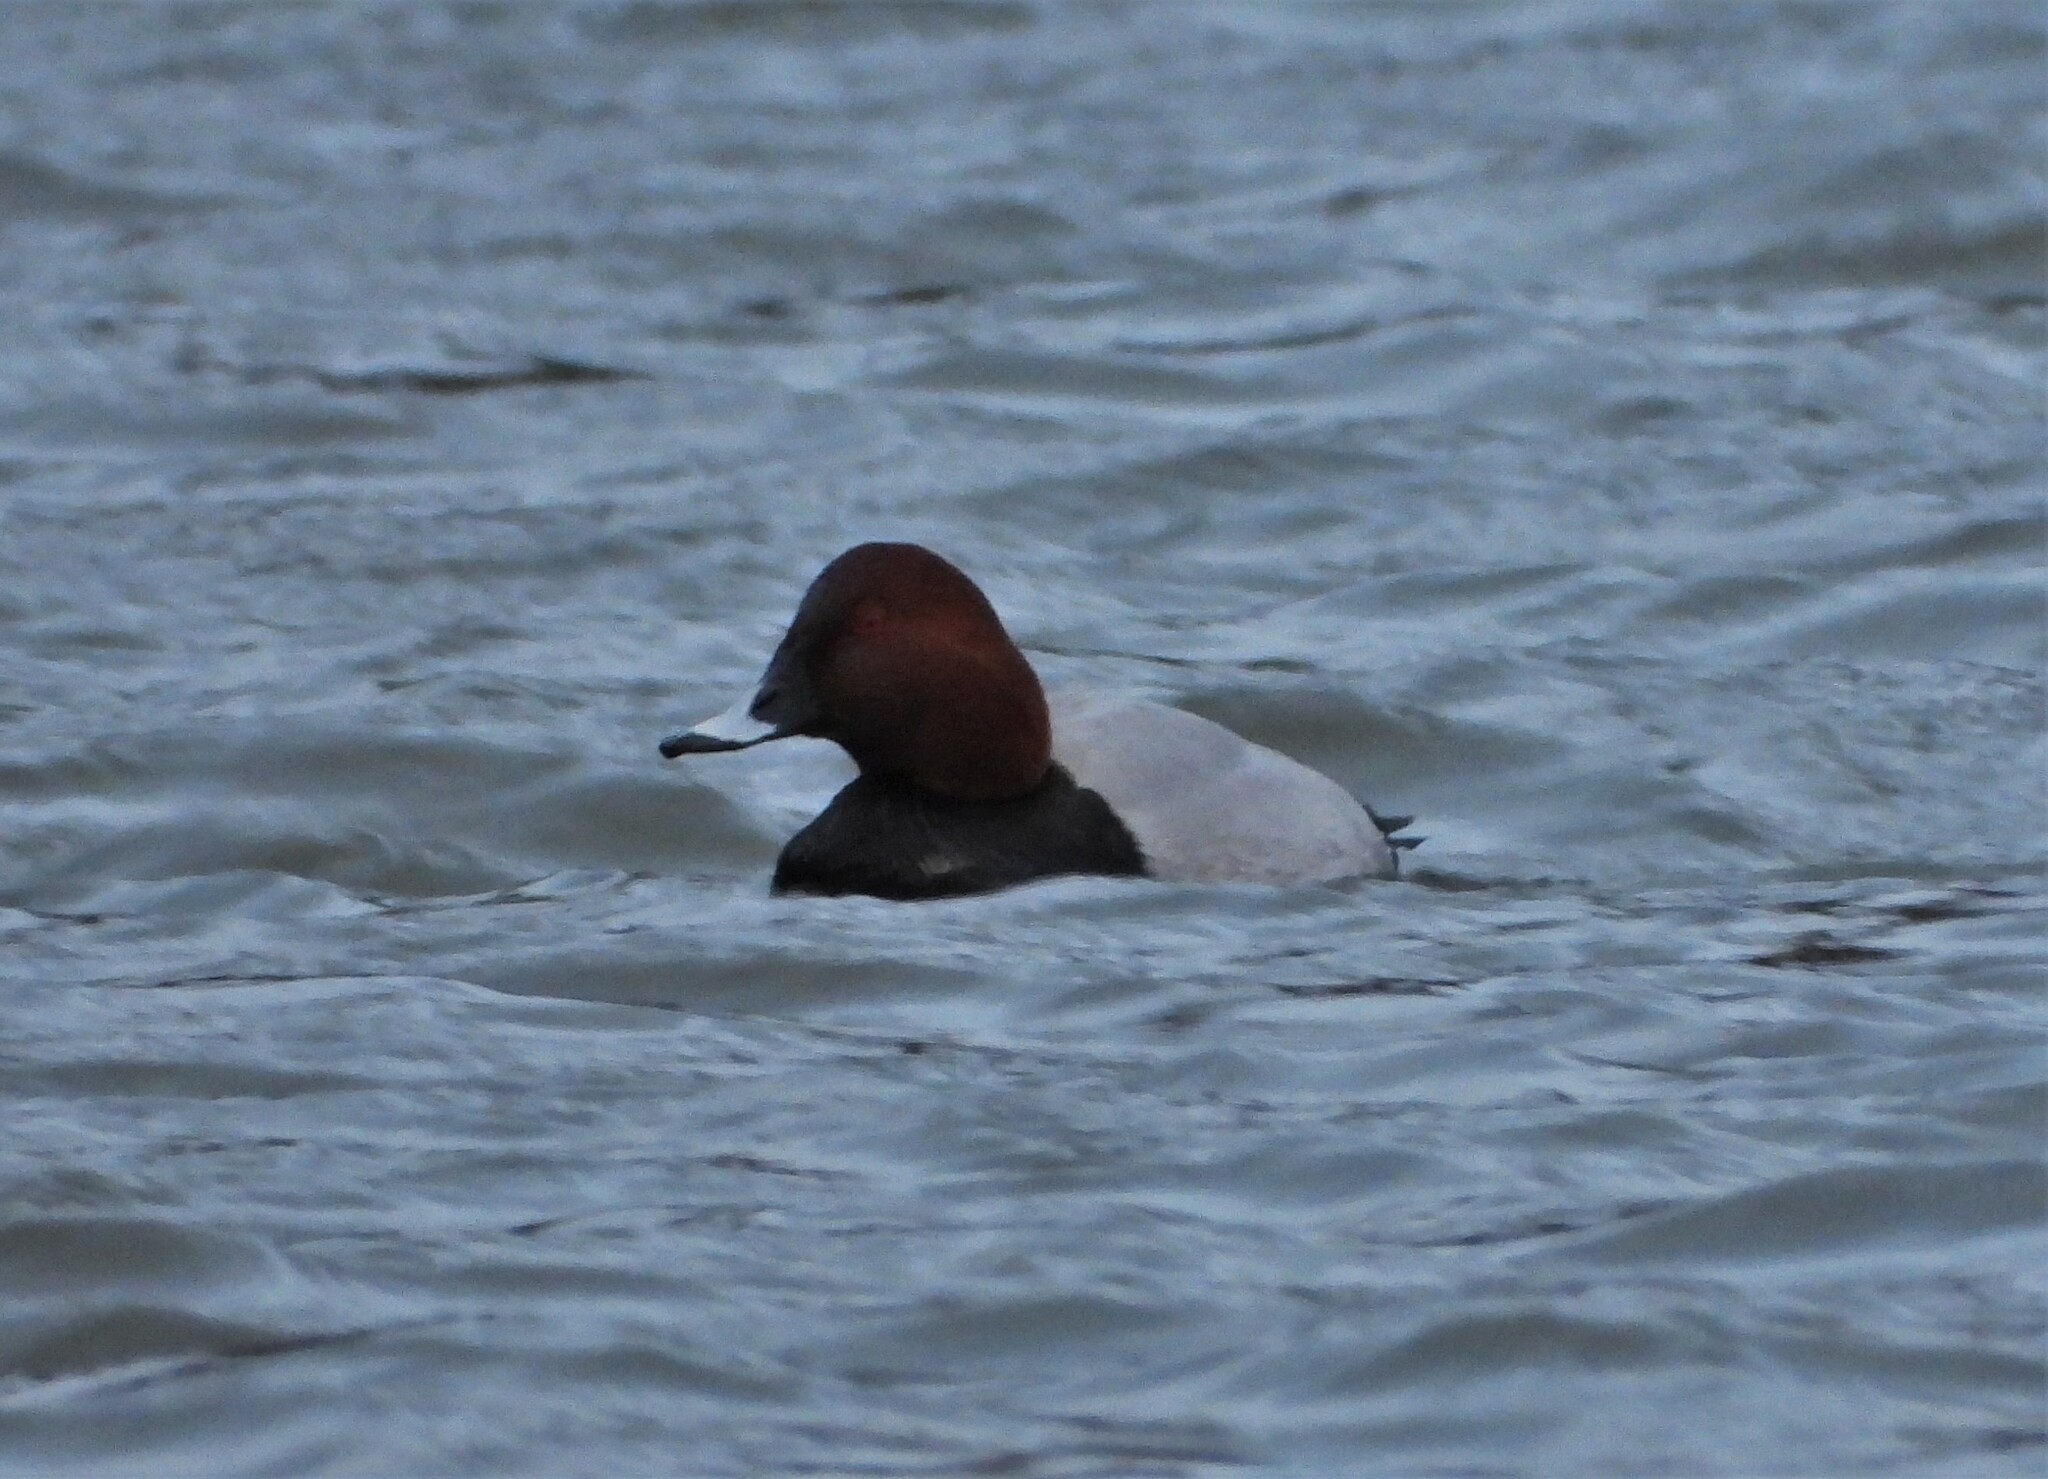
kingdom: Animalia
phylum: Chordata
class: Aves
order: Anseriformes
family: Anatidae
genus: Aythya
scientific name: Aythya ferina
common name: Common pochard
